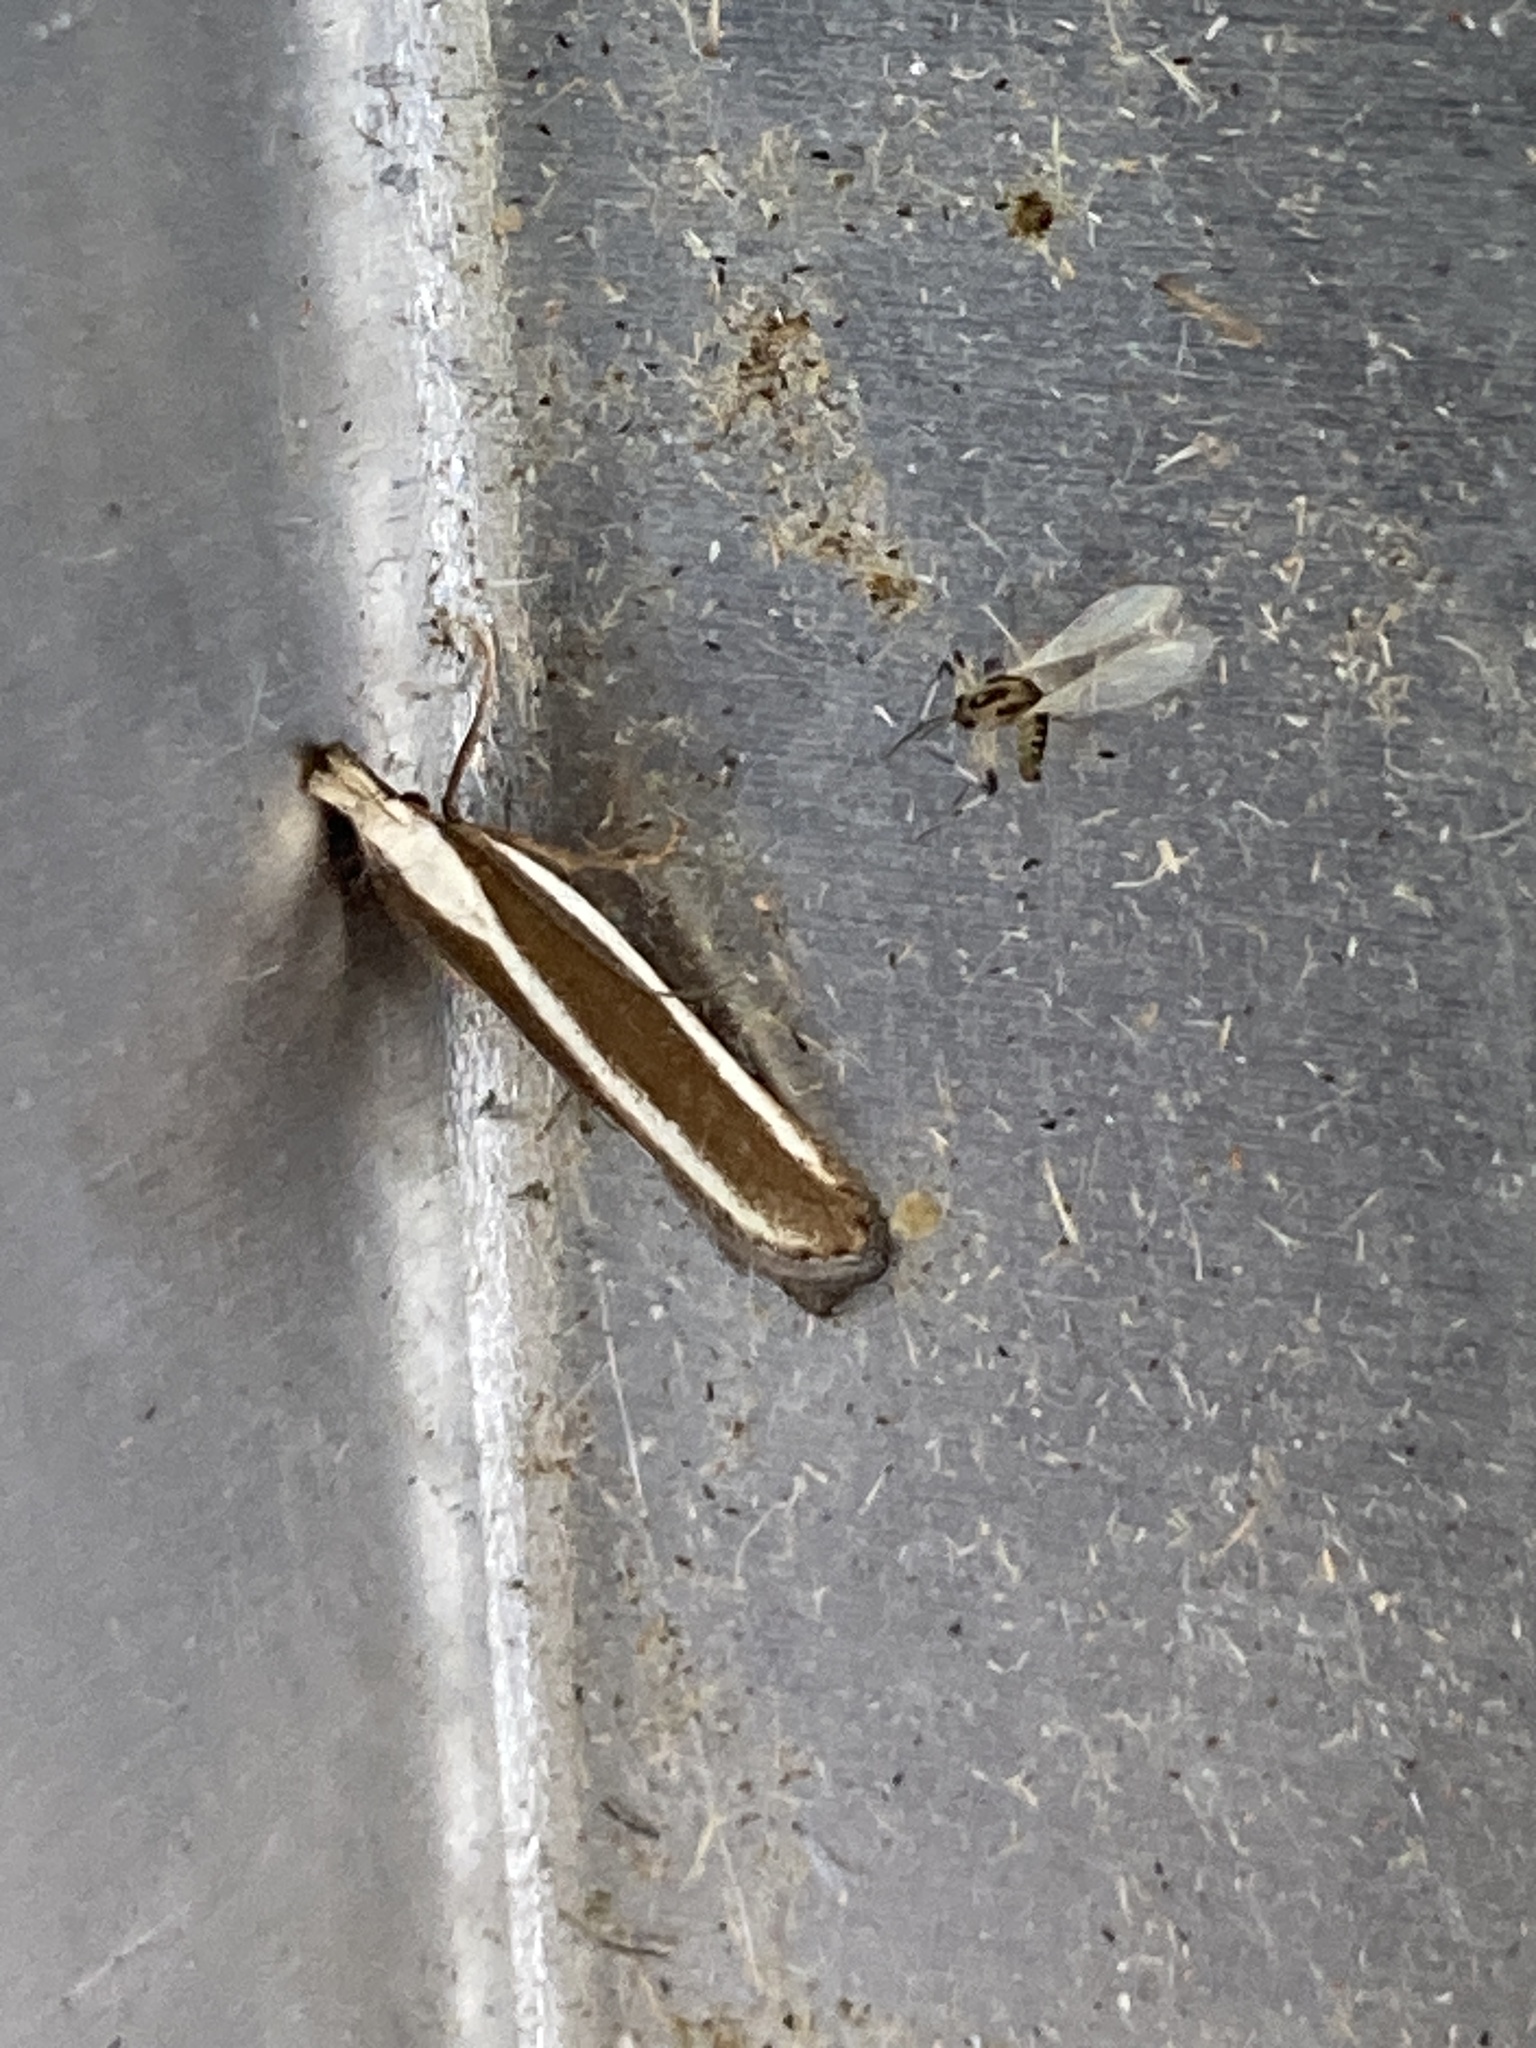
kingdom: Animalia
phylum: Arthropoda
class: Insecta
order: Lepidoptera
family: Gelechiidae
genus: Dichomeris
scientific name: Dichomeris marginella
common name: Juniper webworm
